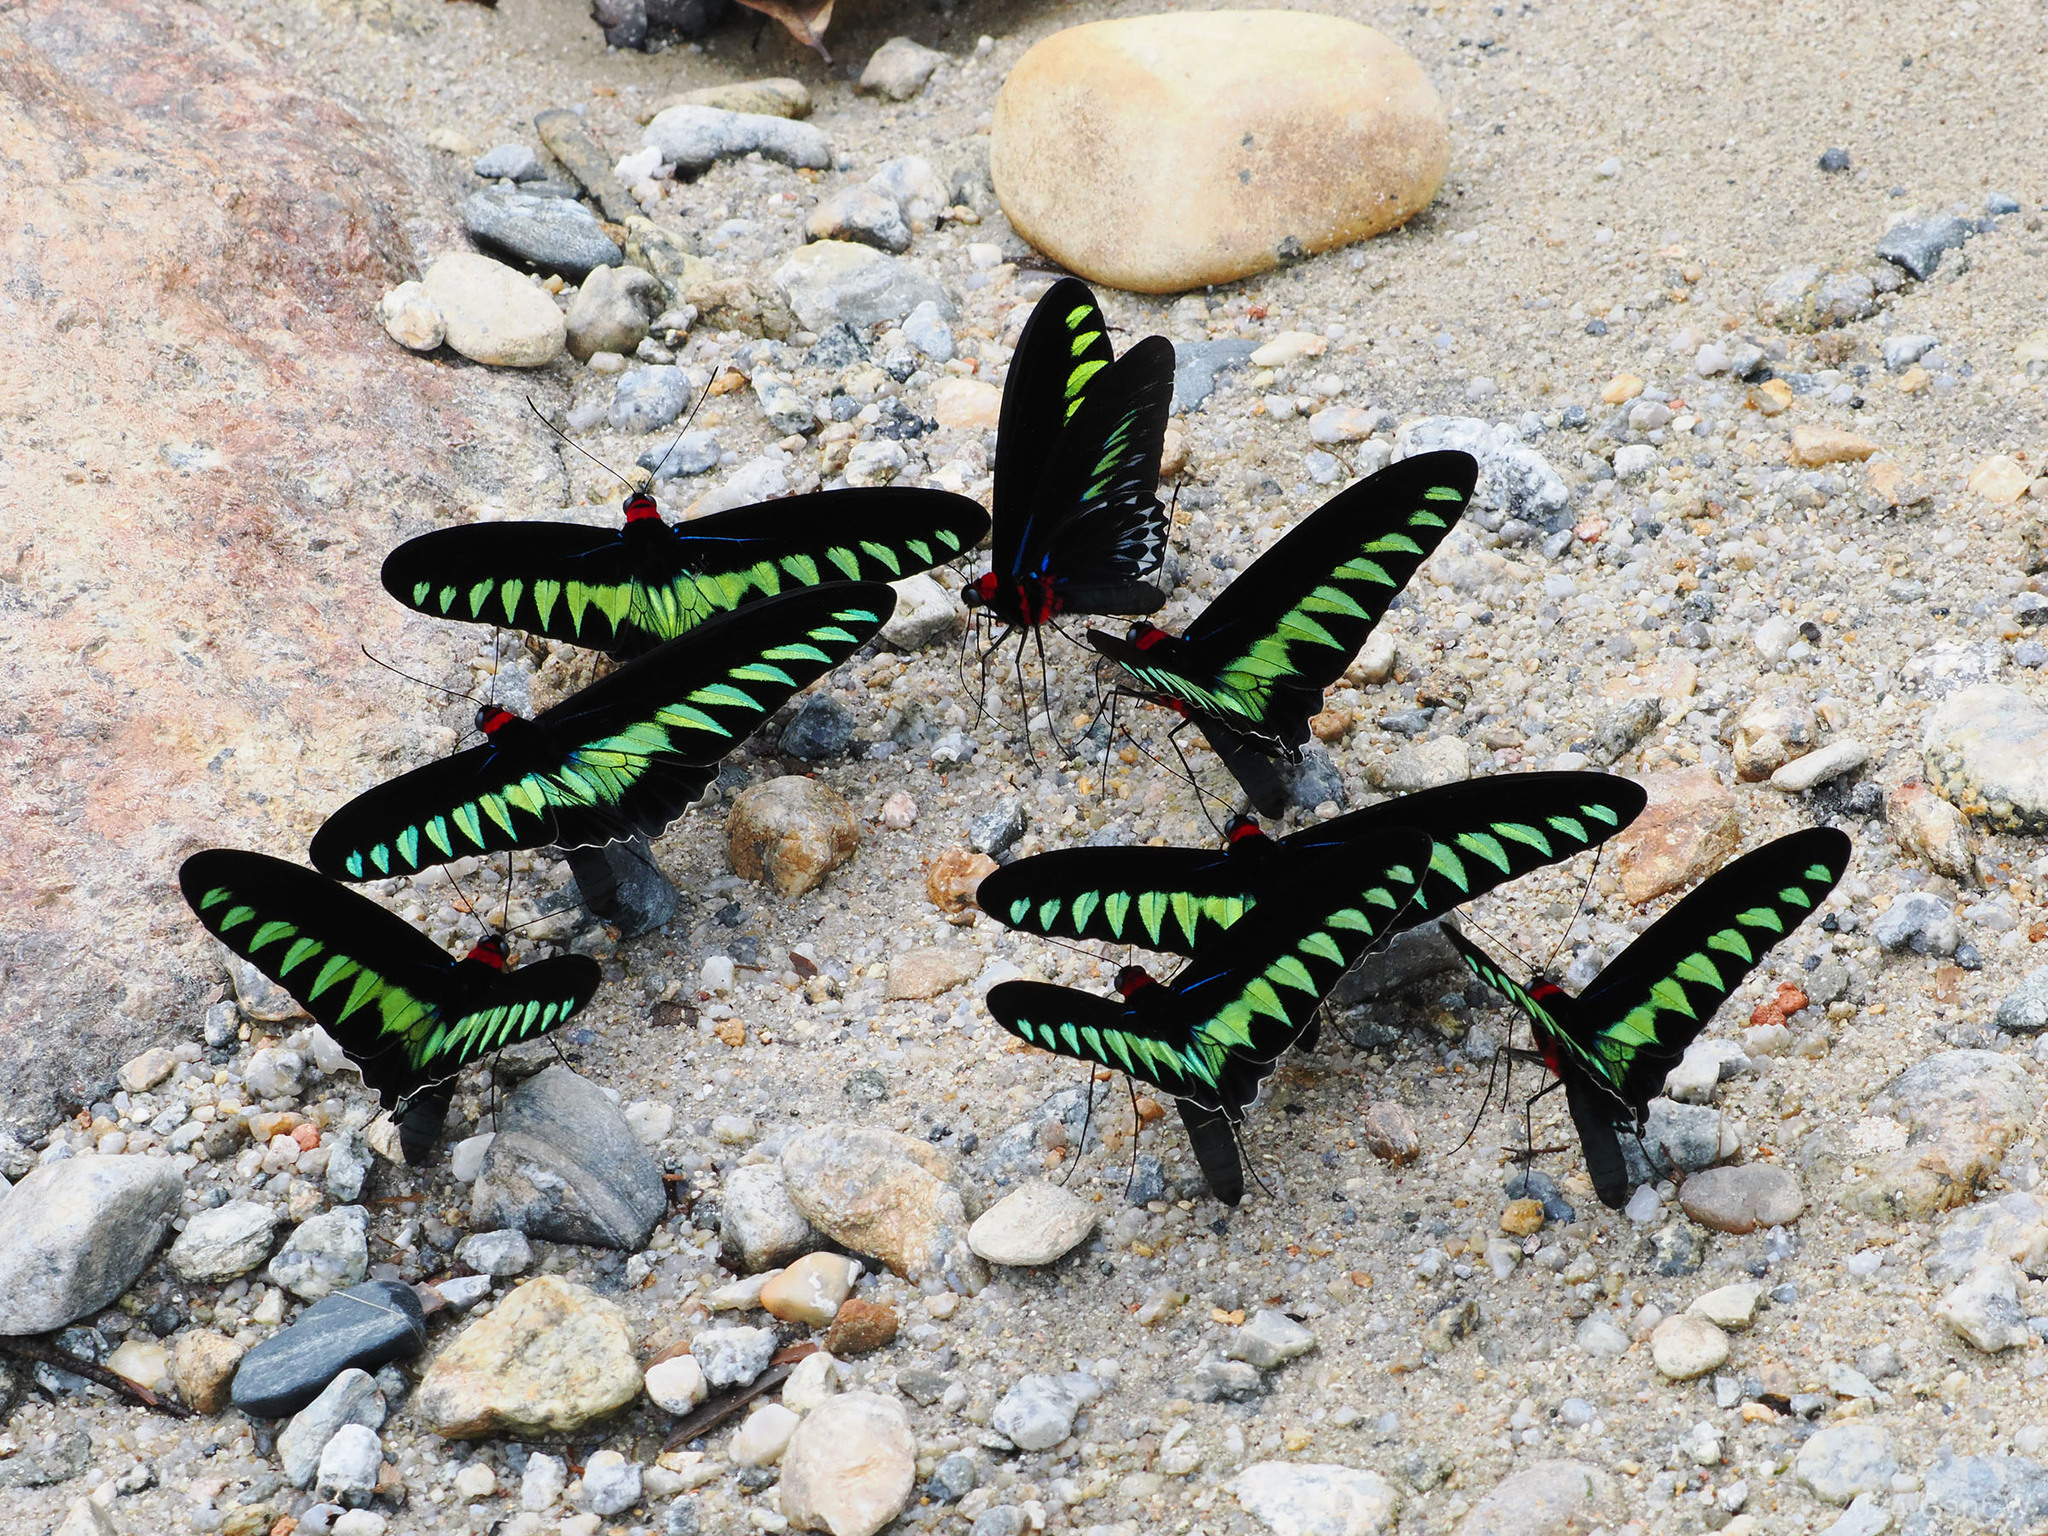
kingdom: Animalia
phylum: Arthropoda
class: Insecta
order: Lepidoptera
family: Papilionidae
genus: Trogonoptera
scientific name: Trogonoptera brookiana
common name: Raja brooke's birdwing
